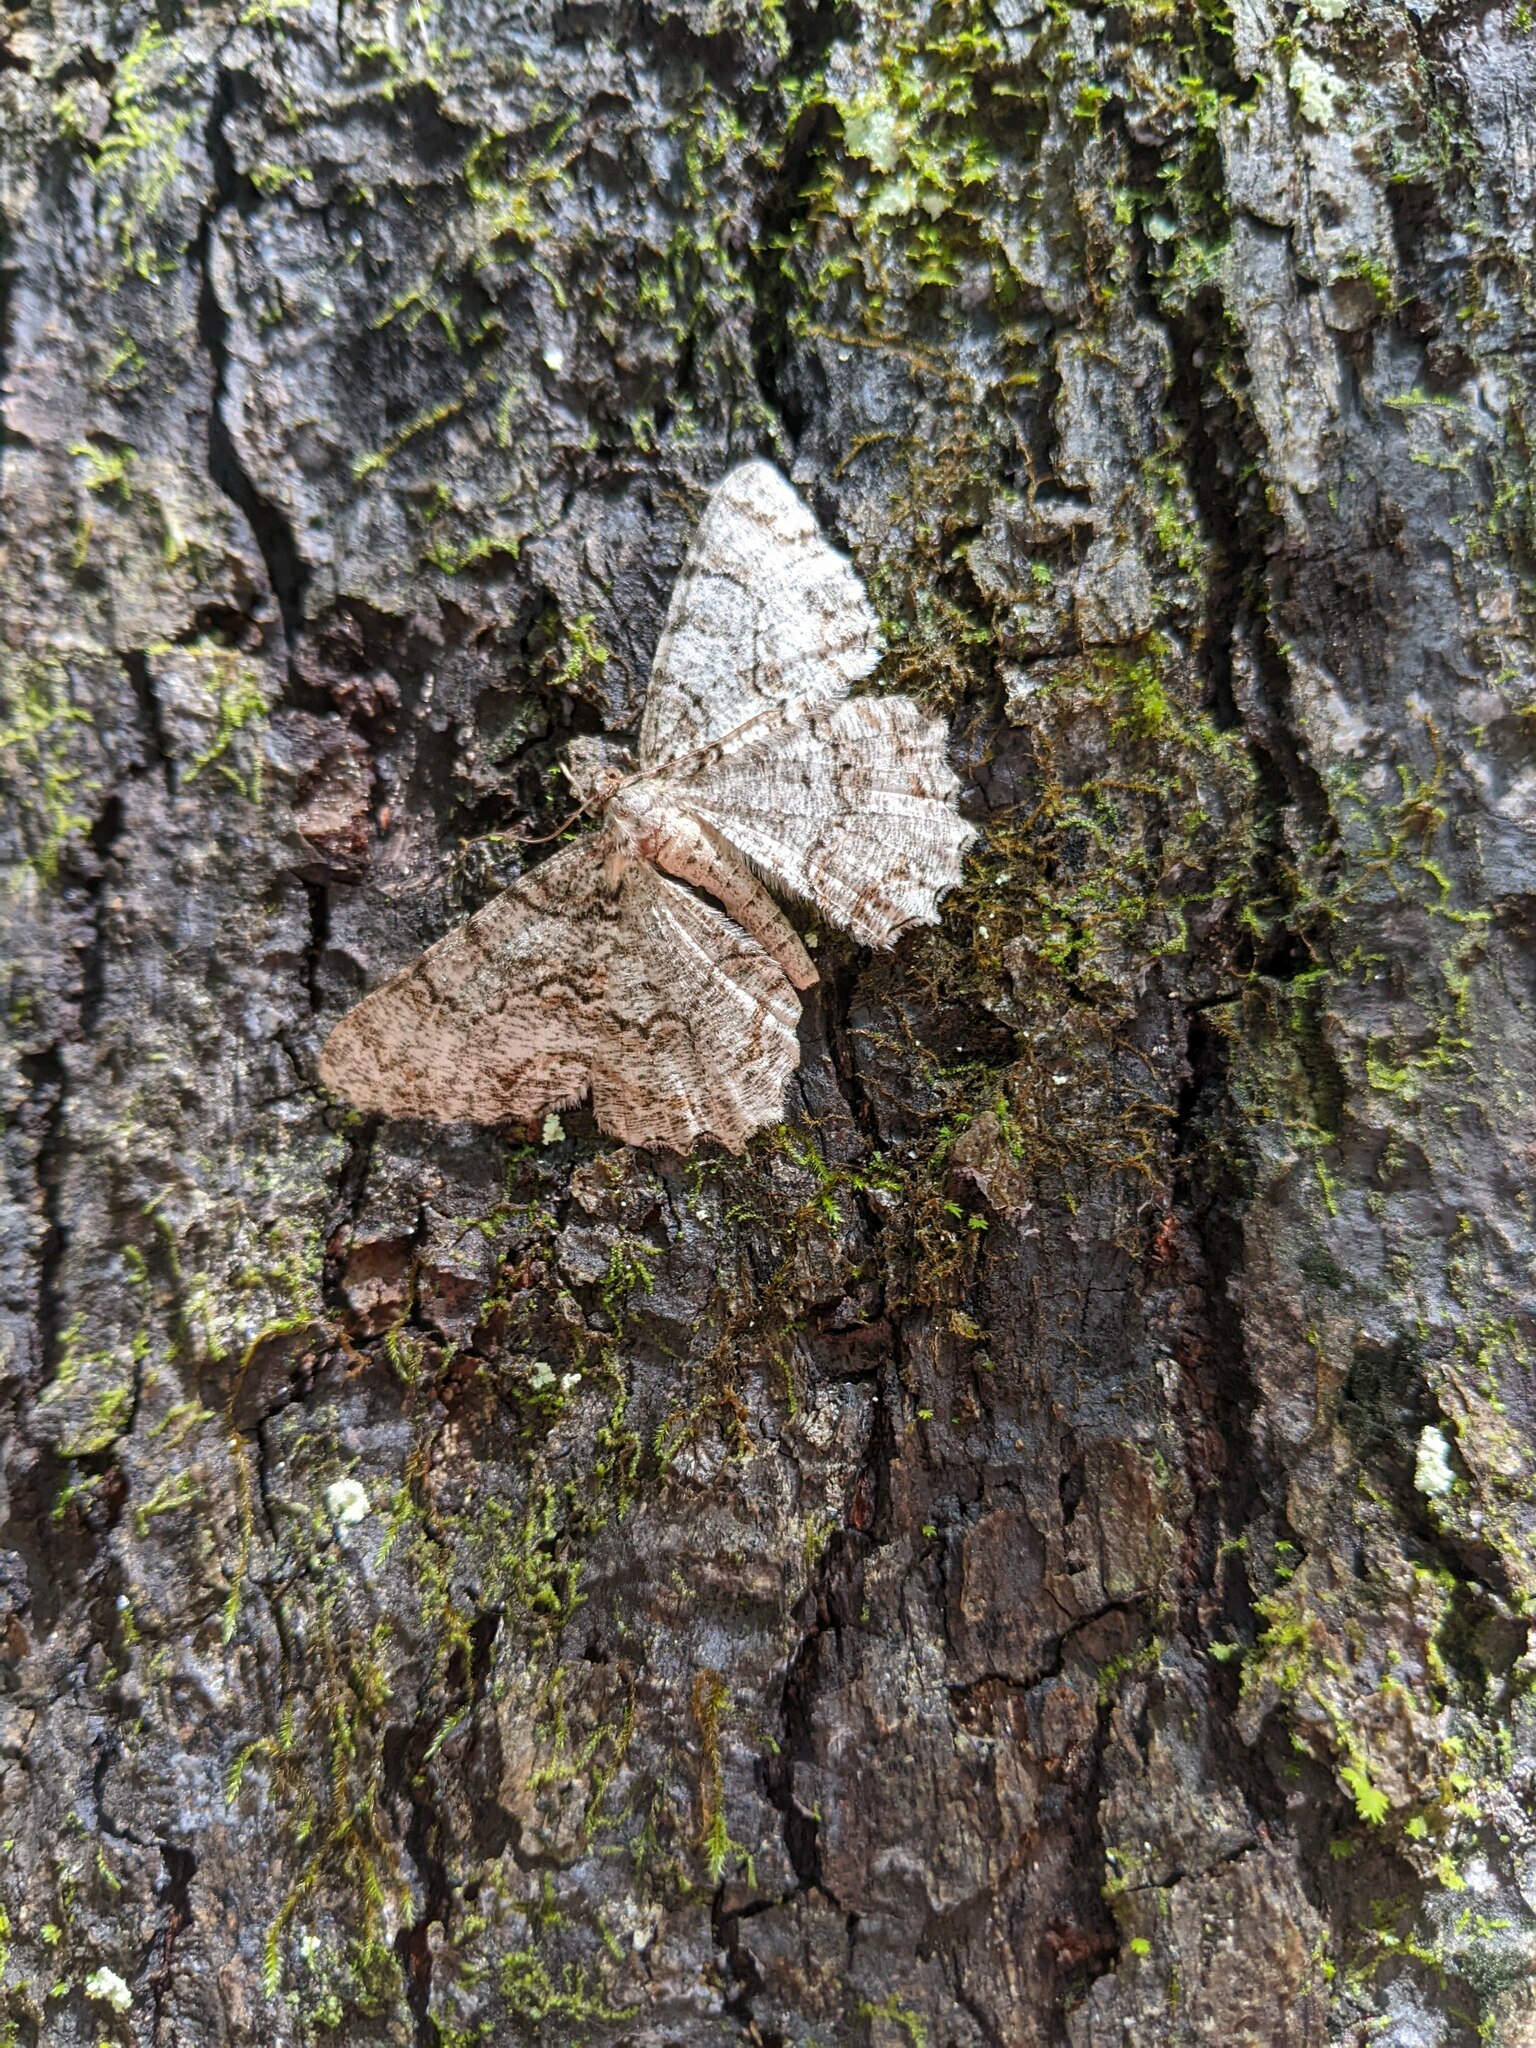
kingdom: Animalia
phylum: Arthropoda
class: Insecta
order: Lepidoptera
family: Geometridae
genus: Epimecis
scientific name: Epimecis hortaria
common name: Tulip-tree beauty
